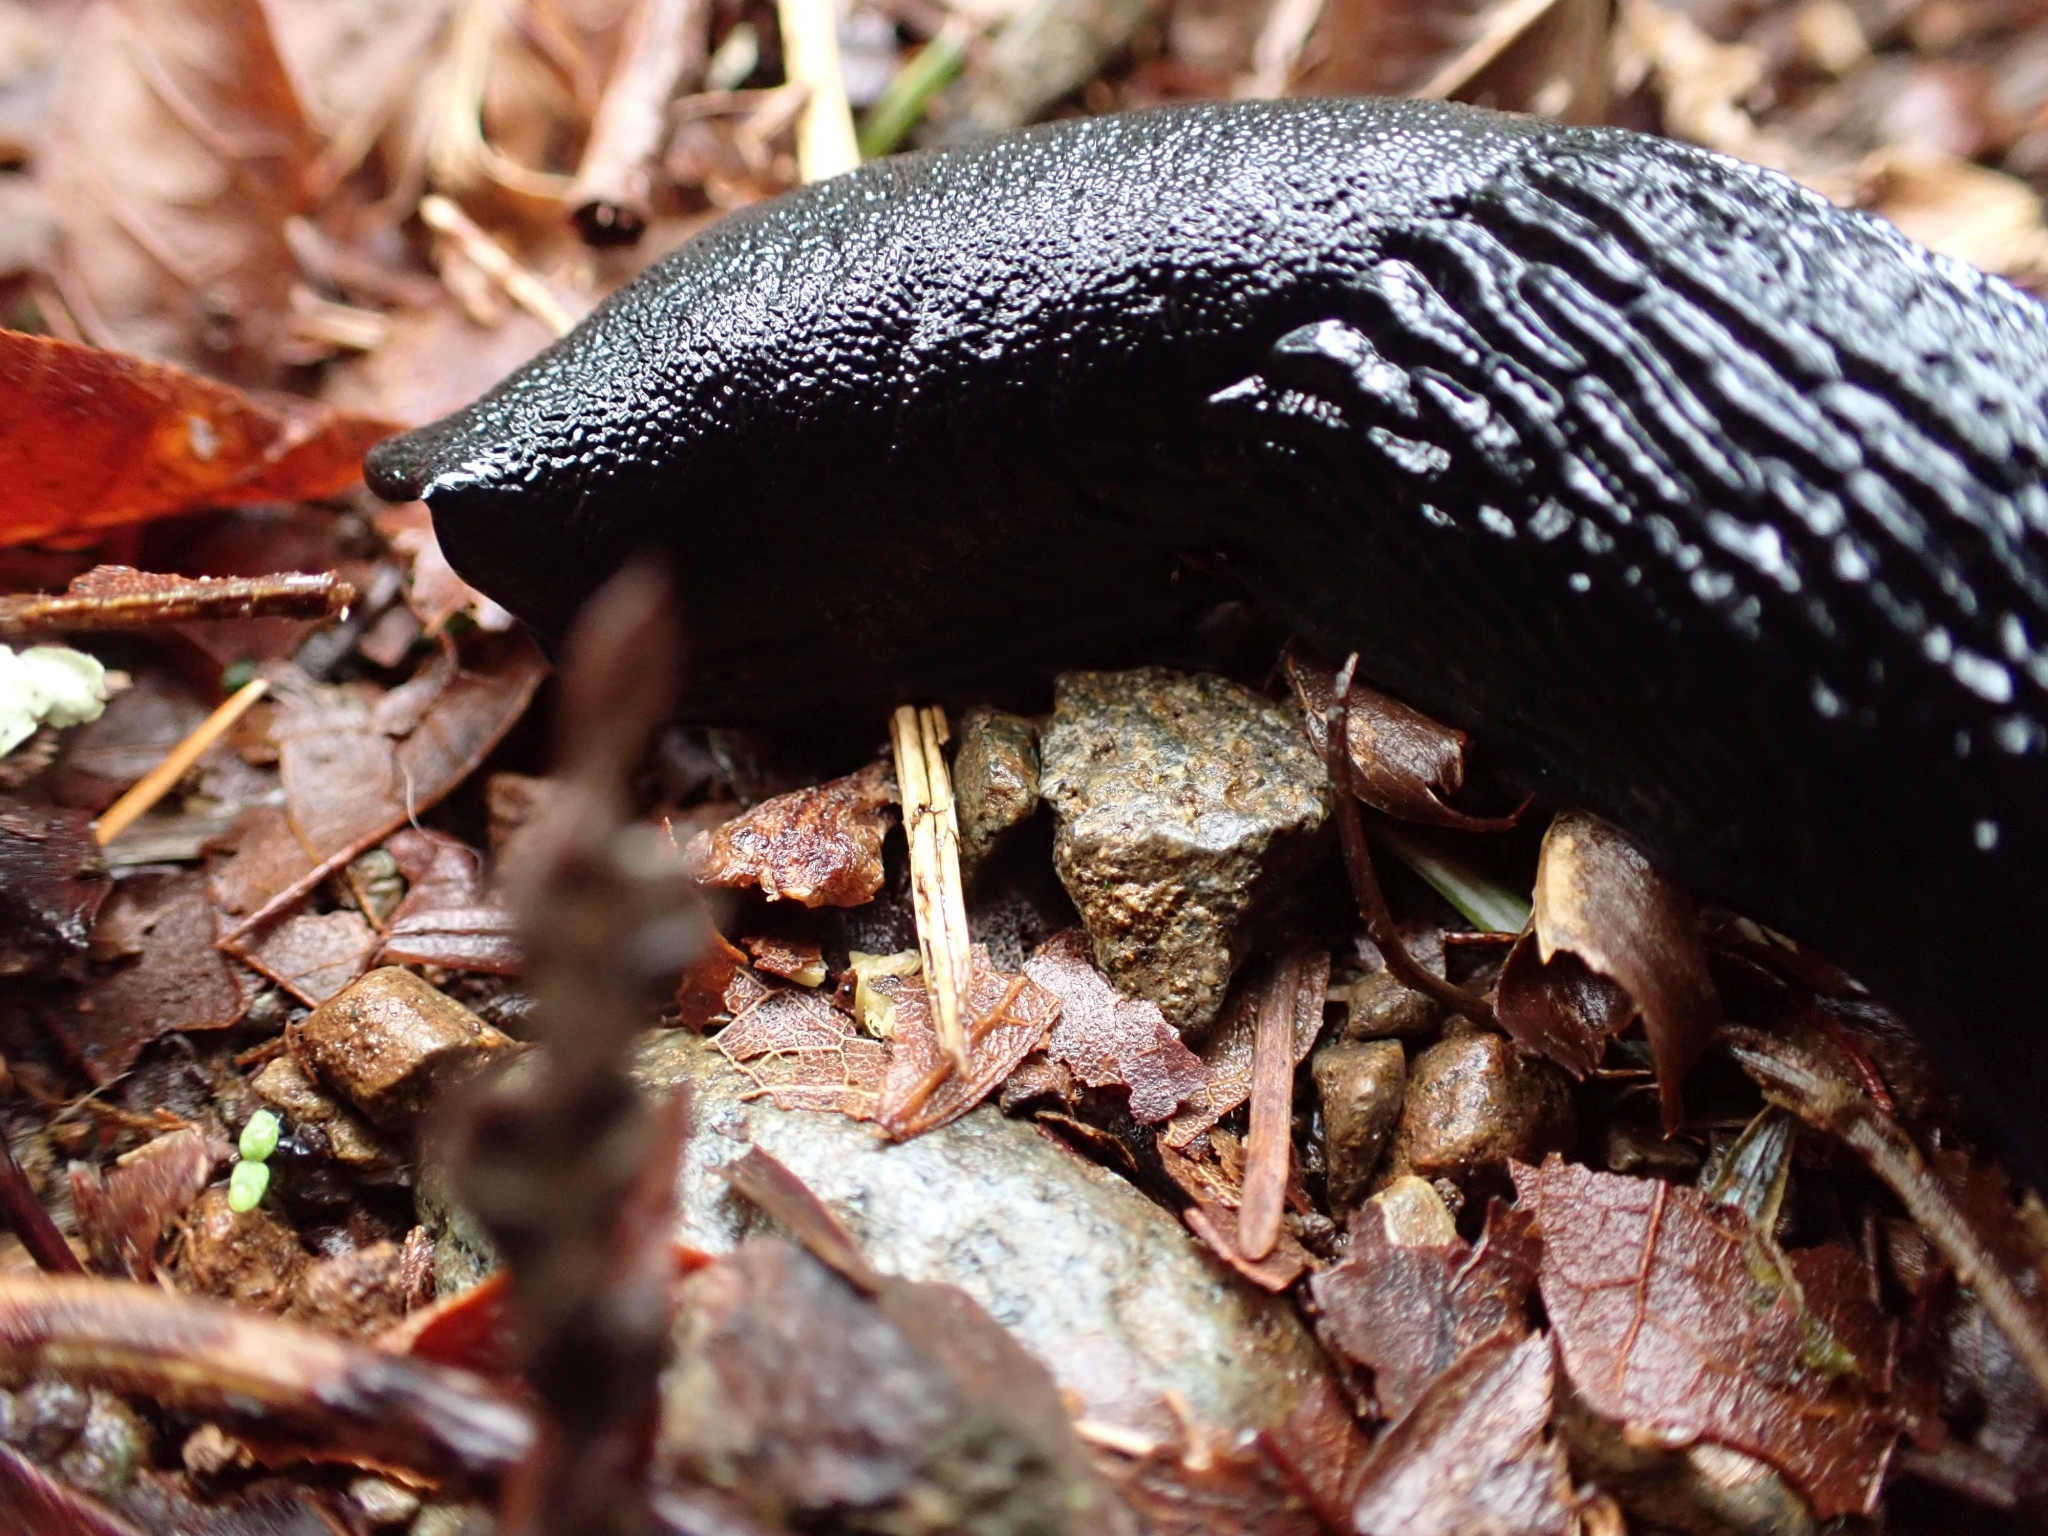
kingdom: Animalia
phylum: Mollusca
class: Gastropoda
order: Stylommatophora
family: Arionidae
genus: Arion
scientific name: Arion
